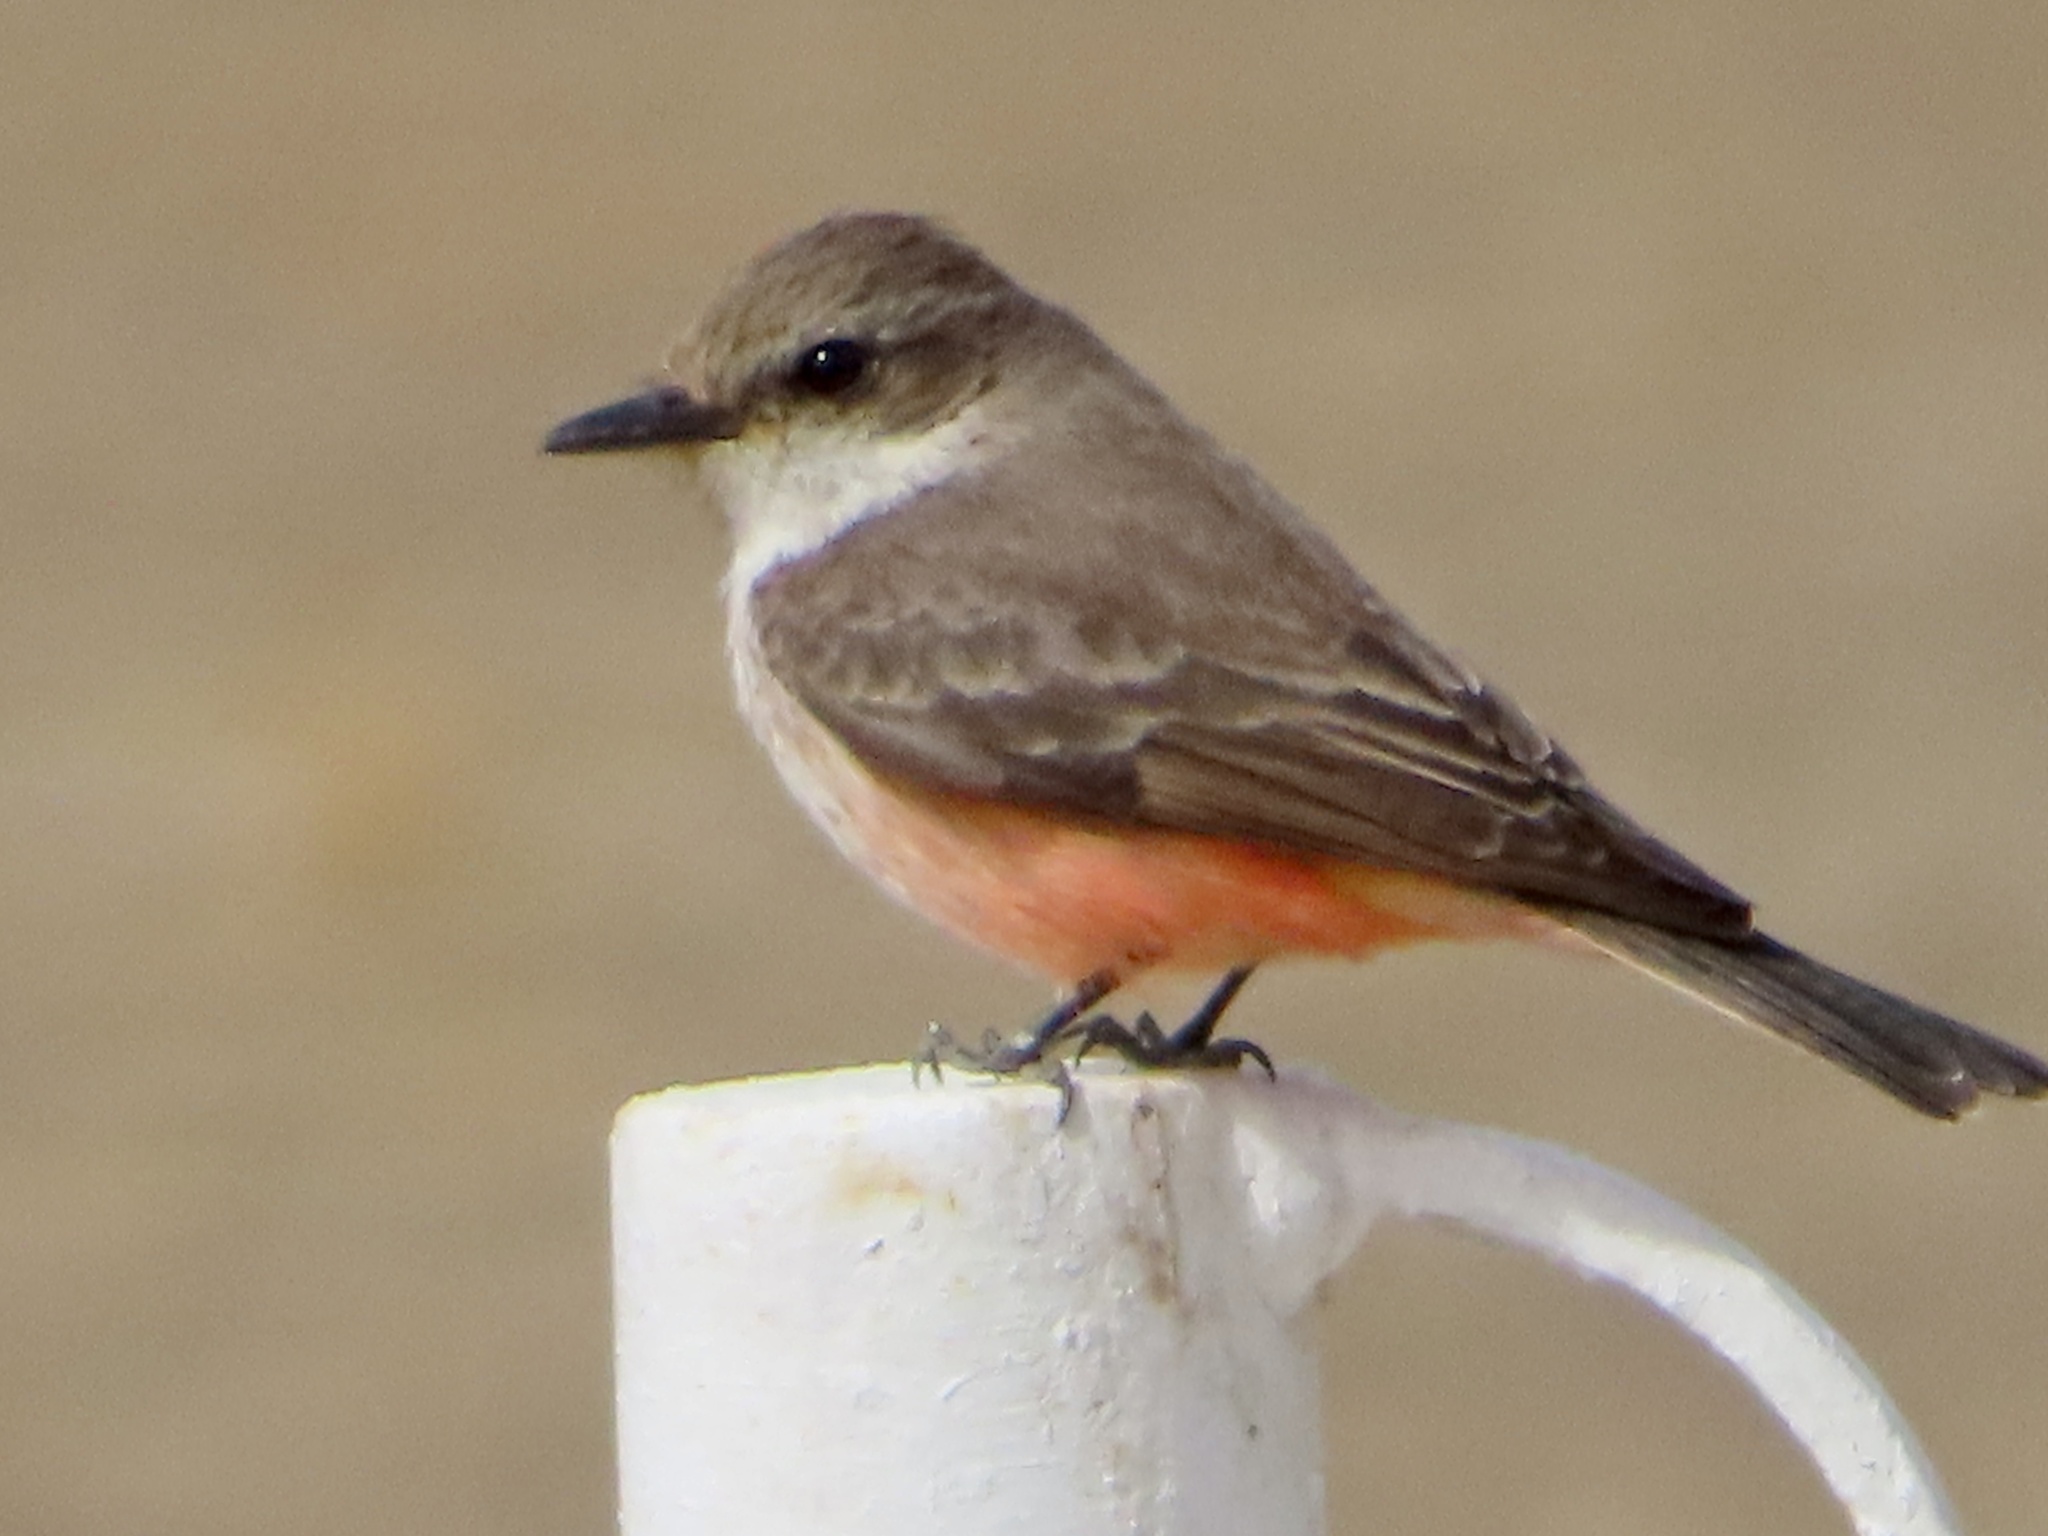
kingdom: Animalia
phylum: Chordata
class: Aves
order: Passeriformes
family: Tyrannidae
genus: Pyrocephalus
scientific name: Pyrocephalus rubinus
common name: Vermilion flycatcher
